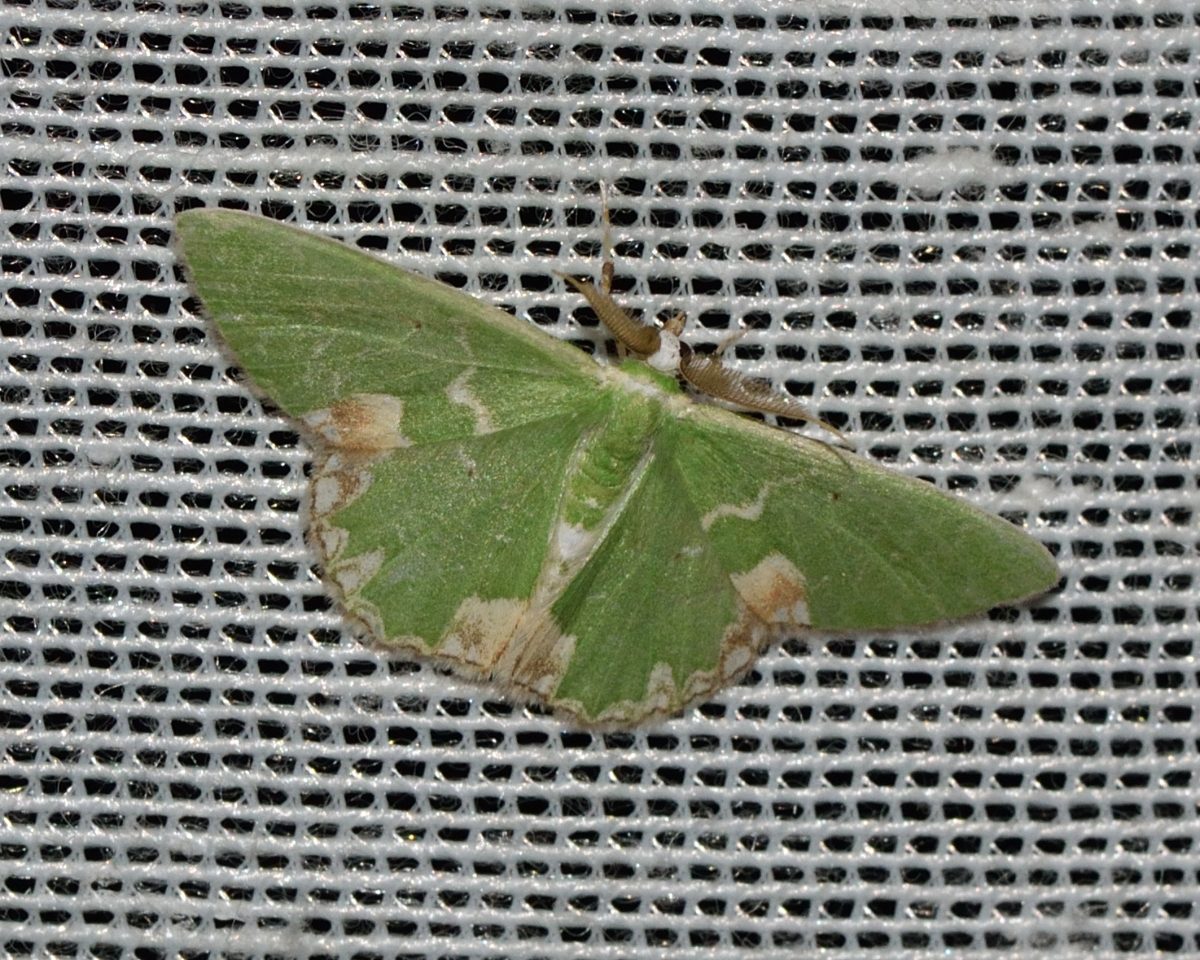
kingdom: Animalia
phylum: Arthropoda
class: Insecta
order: Lepidoptera
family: Geometridae
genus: Comibaena
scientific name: Comibaena bajularia
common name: Blotched emerald
